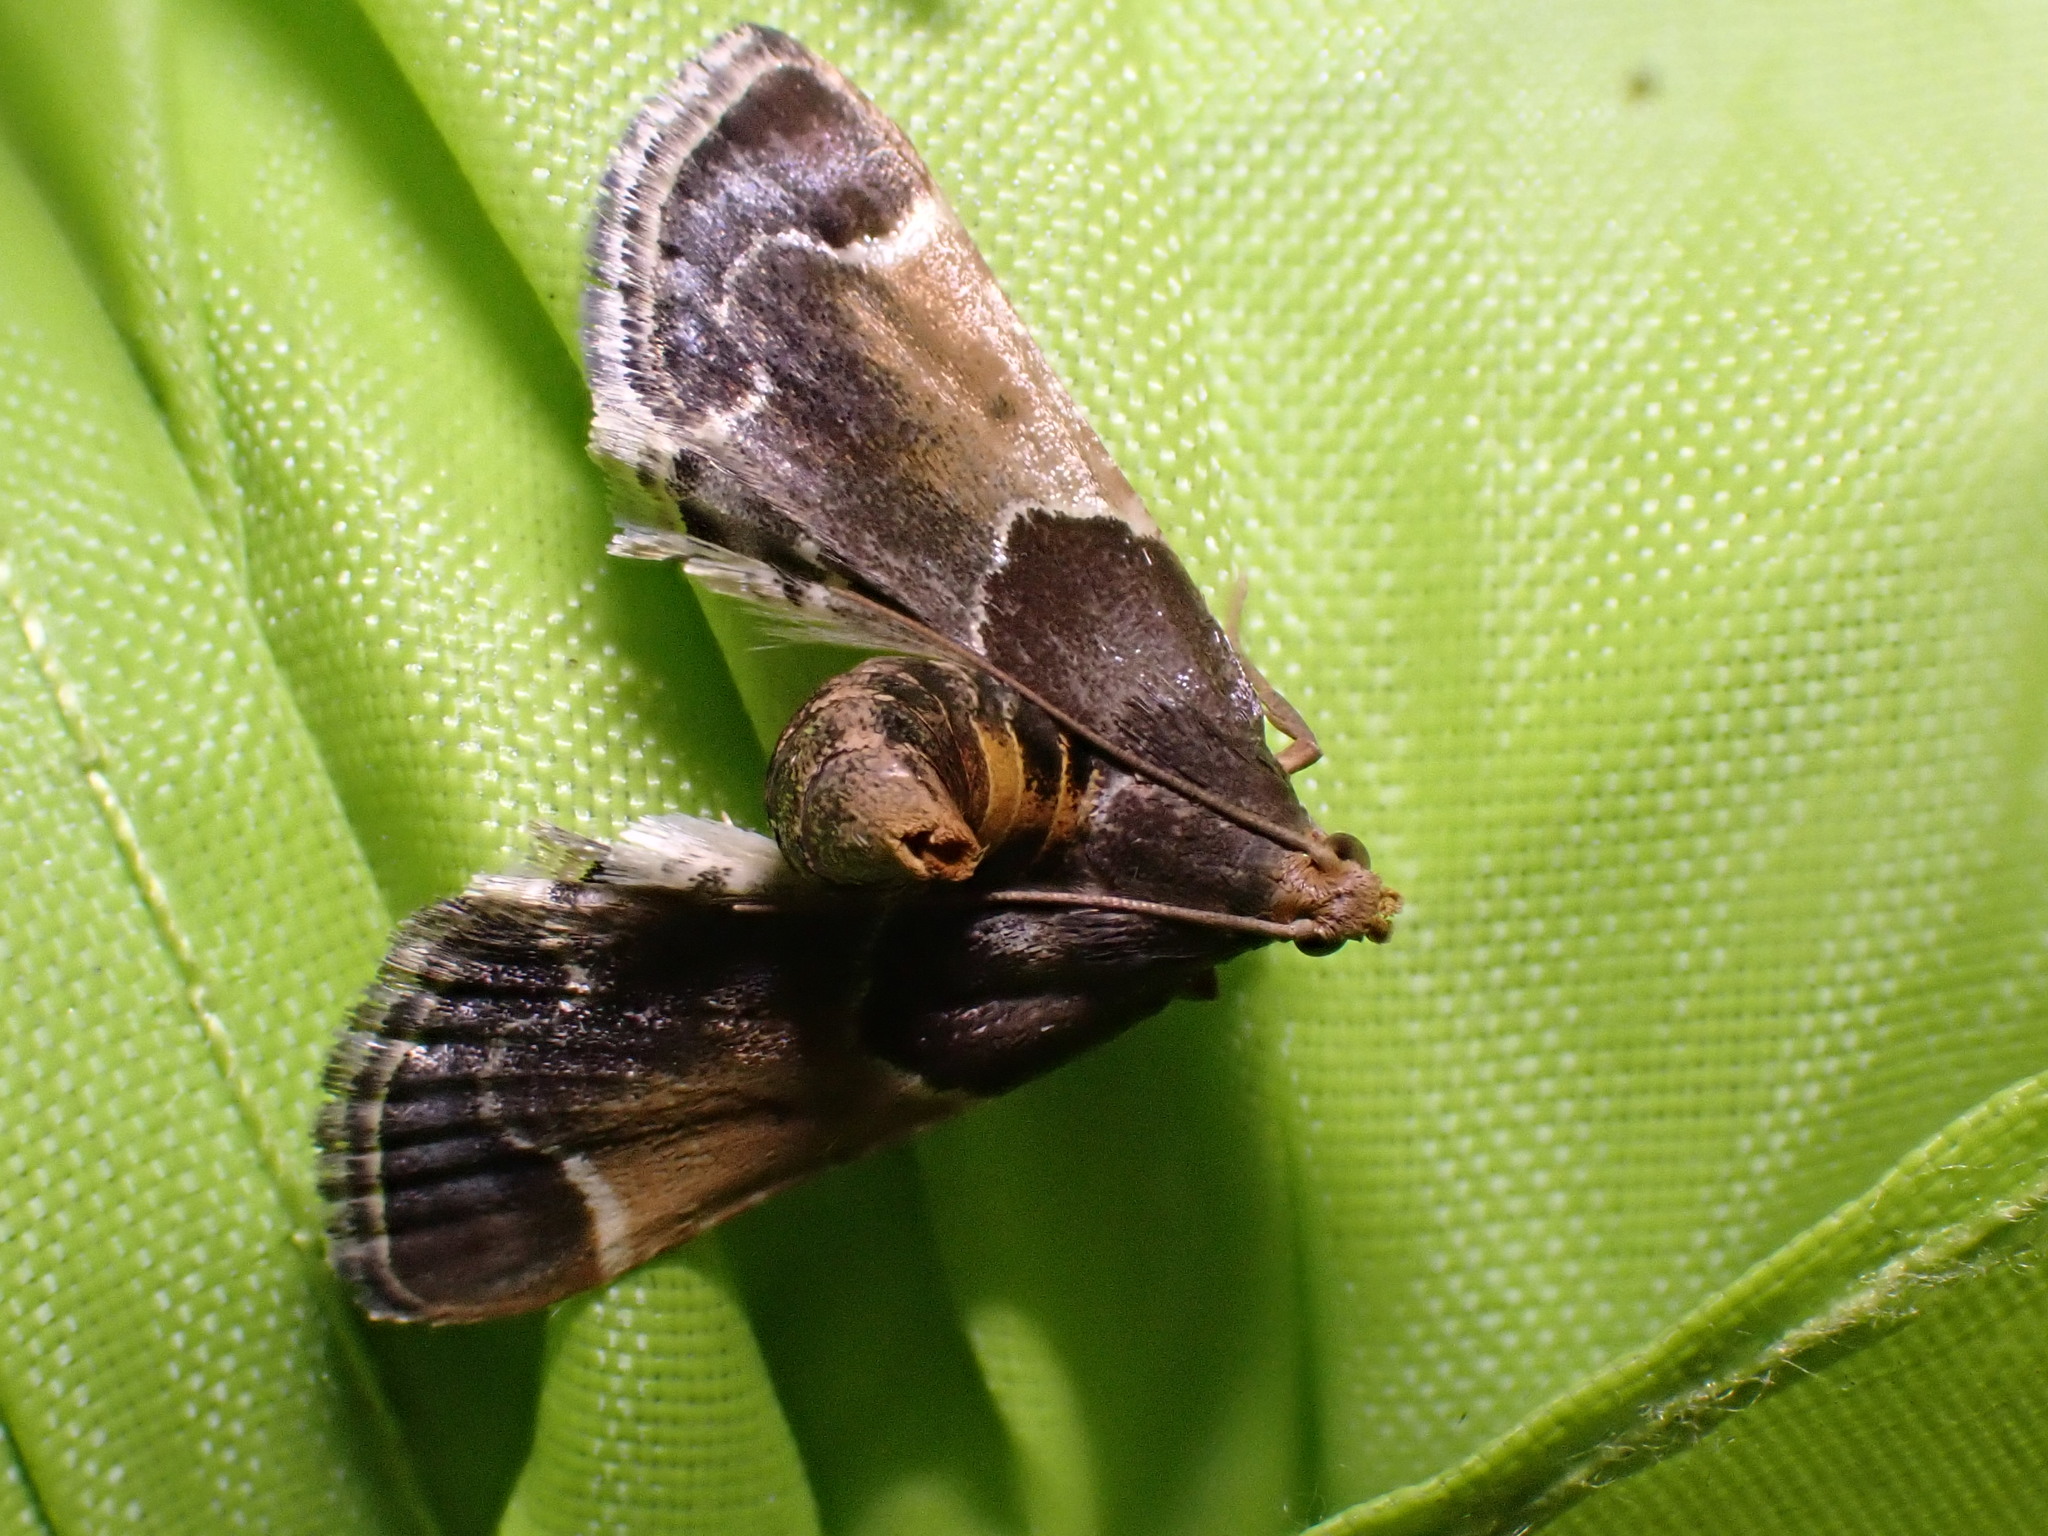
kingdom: Animalia
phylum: Arthropoda
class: Insecta
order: Lepidoptera
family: Pyralidae
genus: Pyralis
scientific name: Pyralis farinalis
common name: Meal moth
